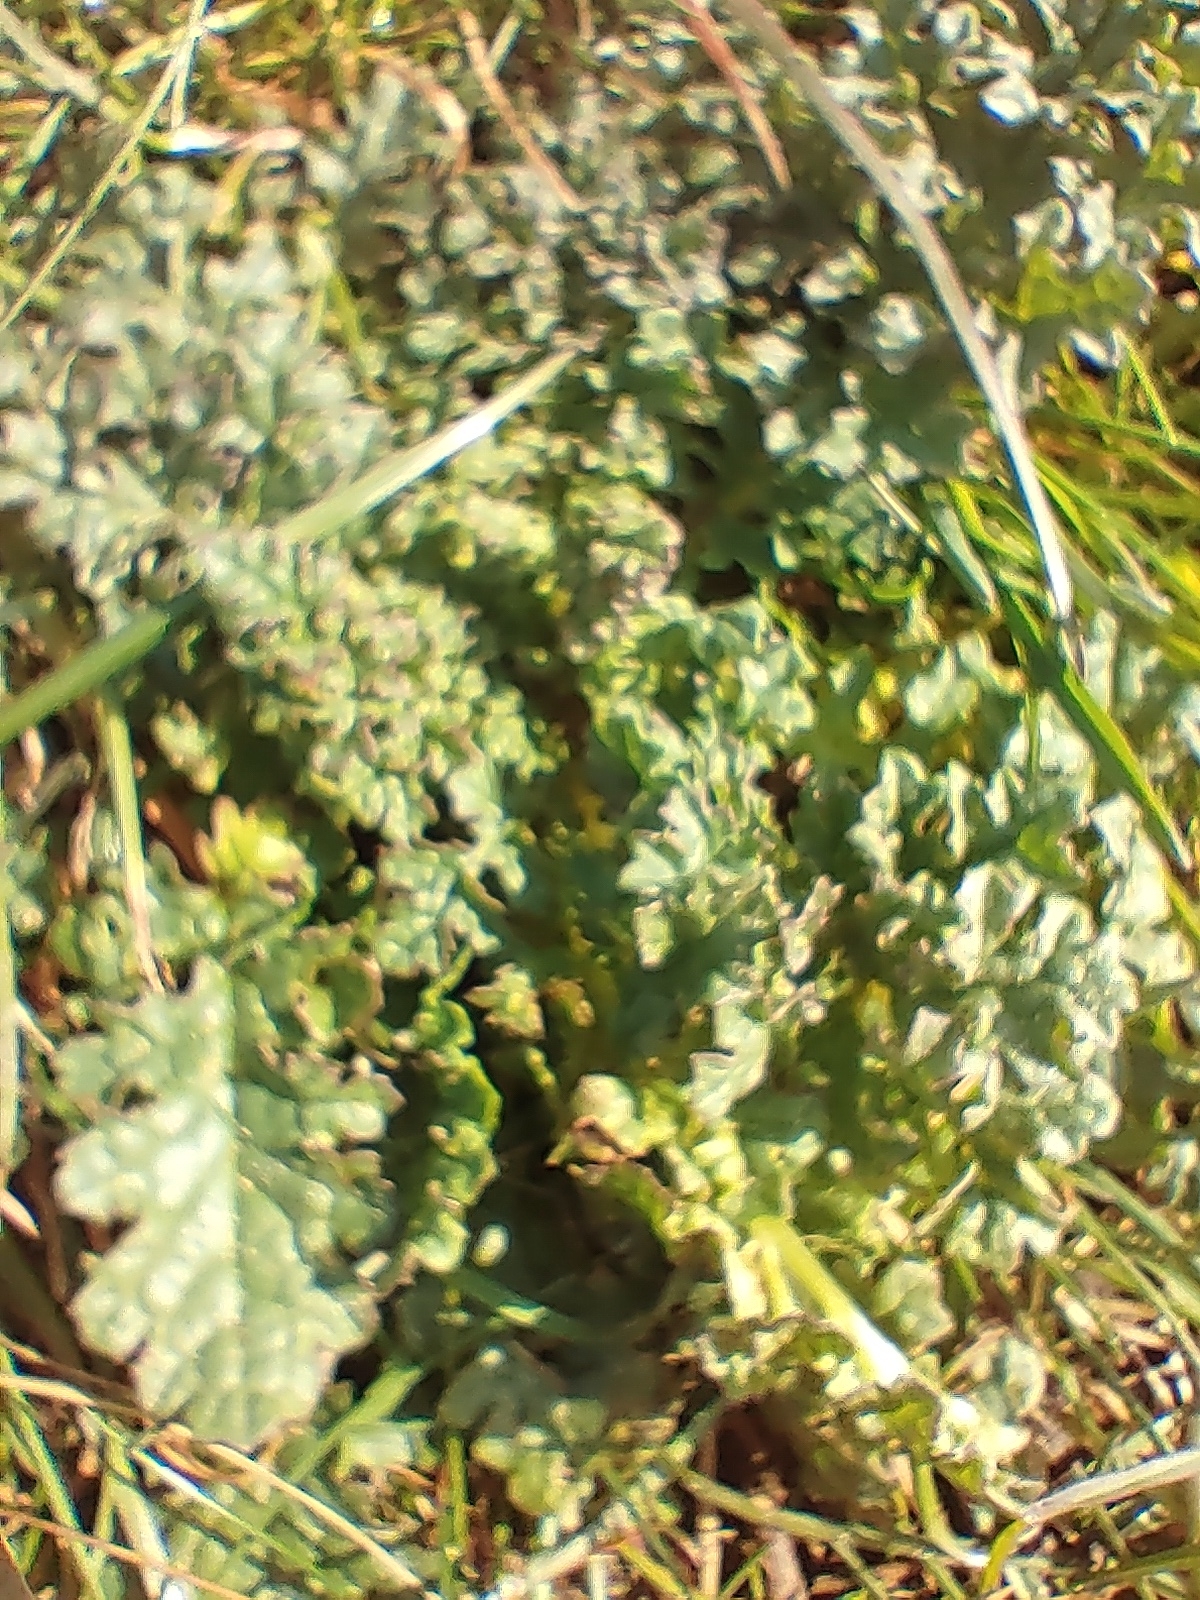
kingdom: Plantae
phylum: Tracheophyta
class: Magnoliopsida
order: Asterales
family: Asteraceae
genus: Jacobaea
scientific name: Jacobaea vulgaris
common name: Stinking willie
